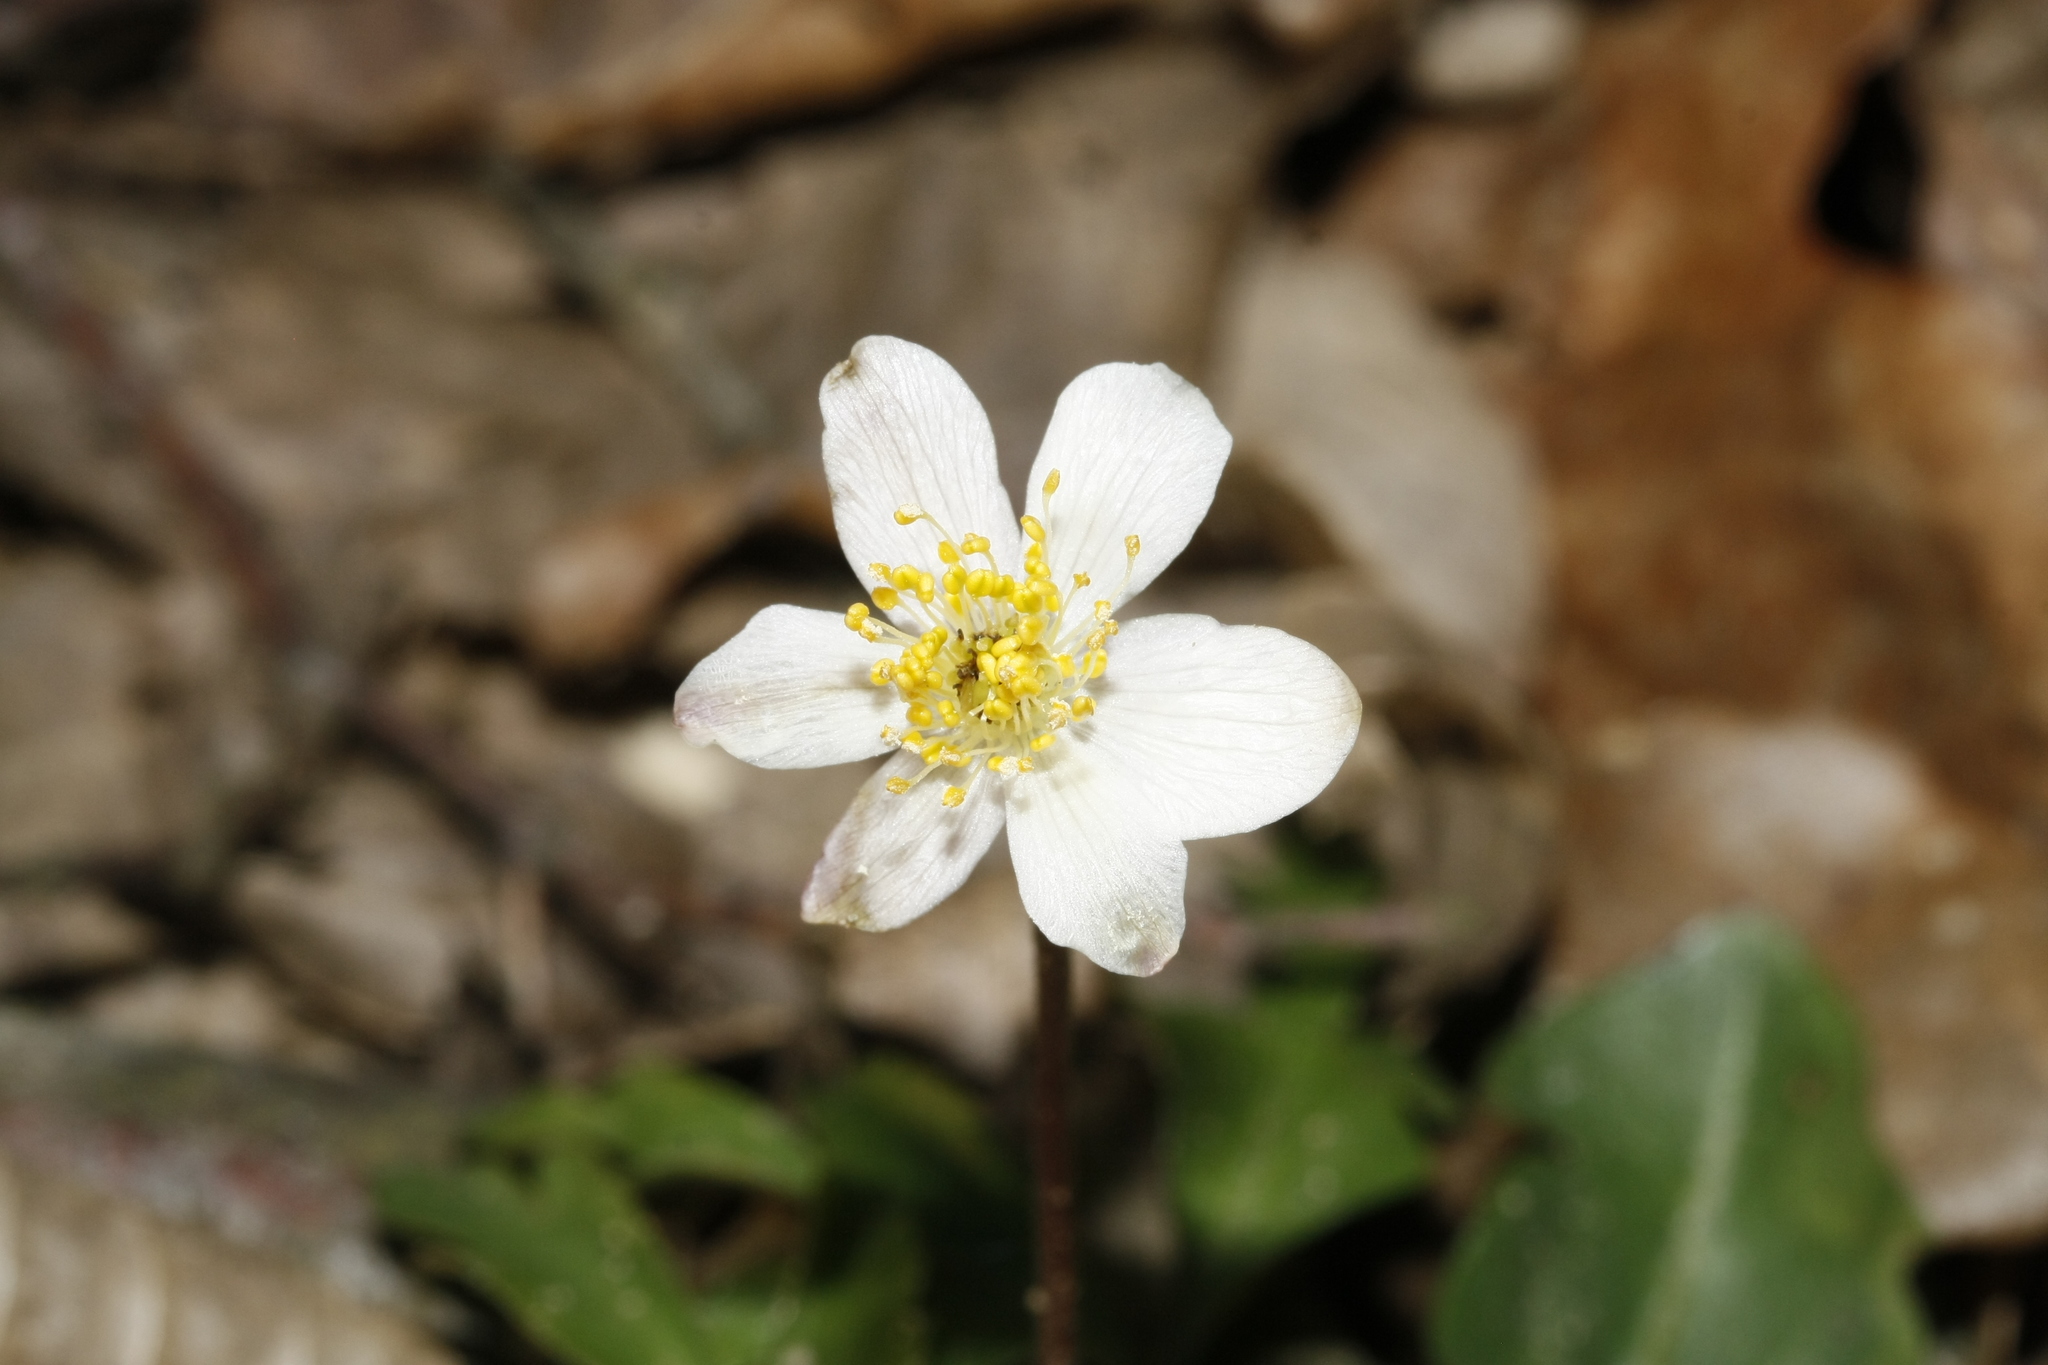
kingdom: Plantae
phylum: Tracheophyta
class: Magnoliopsida
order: Ranunculales
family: Ranunculaceae
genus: Anemone
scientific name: Anemone nemorosa
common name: Wood anemone
